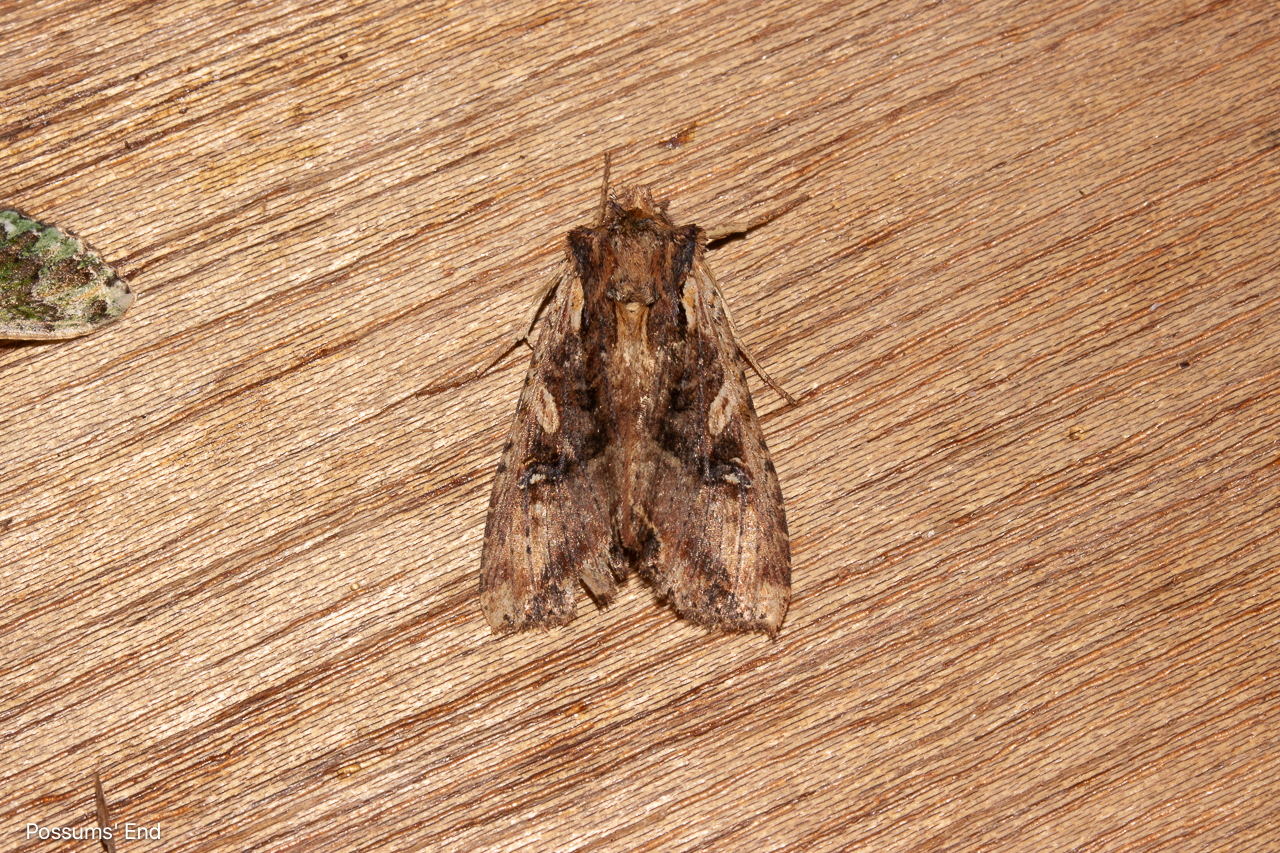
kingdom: Animalia
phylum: Arthropoda
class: Insecta
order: Lepidoptera
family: Noctuidae
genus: Meterana
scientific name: Meterana stipata
